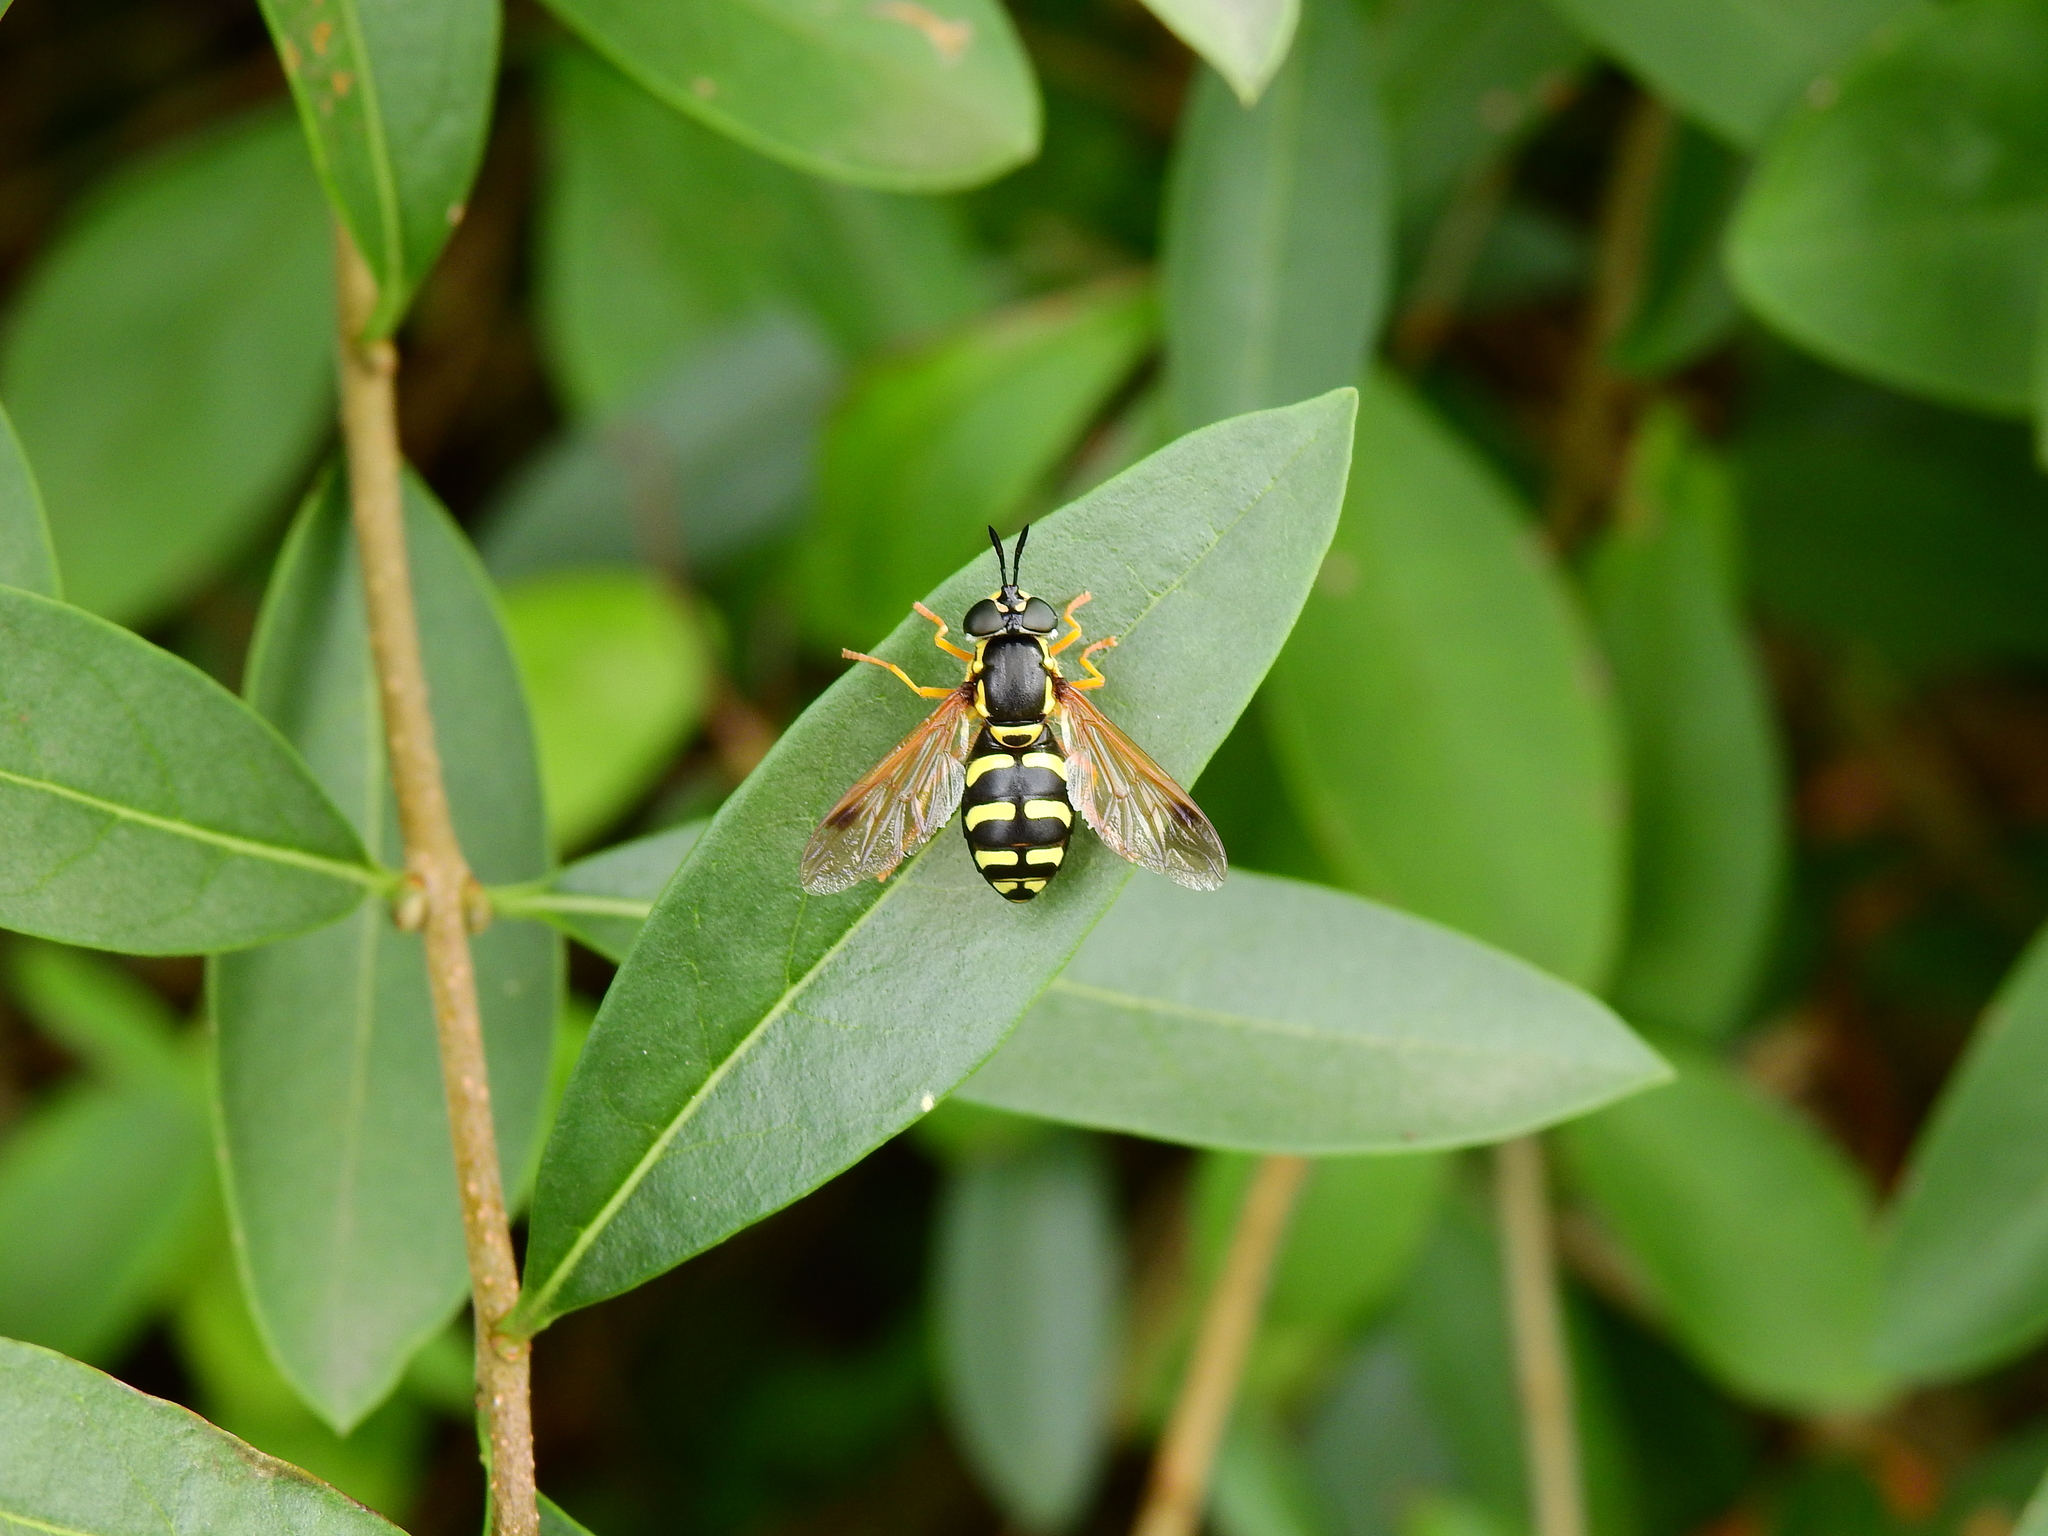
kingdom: Animalia
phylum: Arthropoda
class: Insecta
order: Diptera
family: Syrphidae
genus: Chrysotoxum
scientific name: Chrysotoxum festivum
